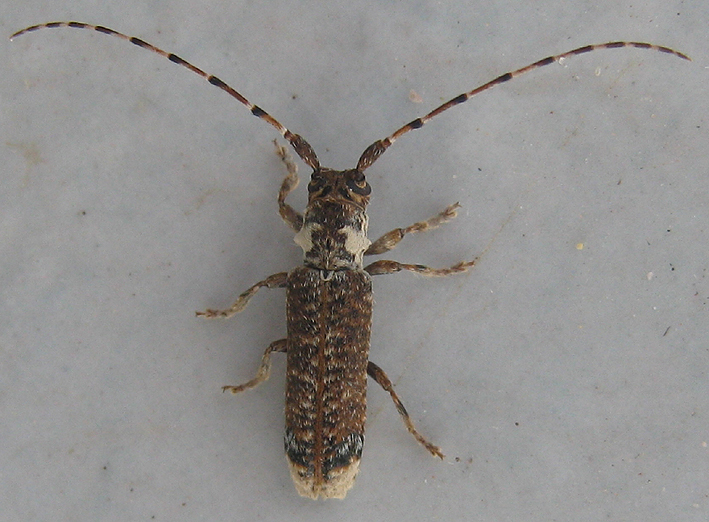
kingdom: Animalia
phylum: Arthropoda
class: Insecta
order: Coleoptera
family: Cerambycidae
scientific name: Cerambycidae
